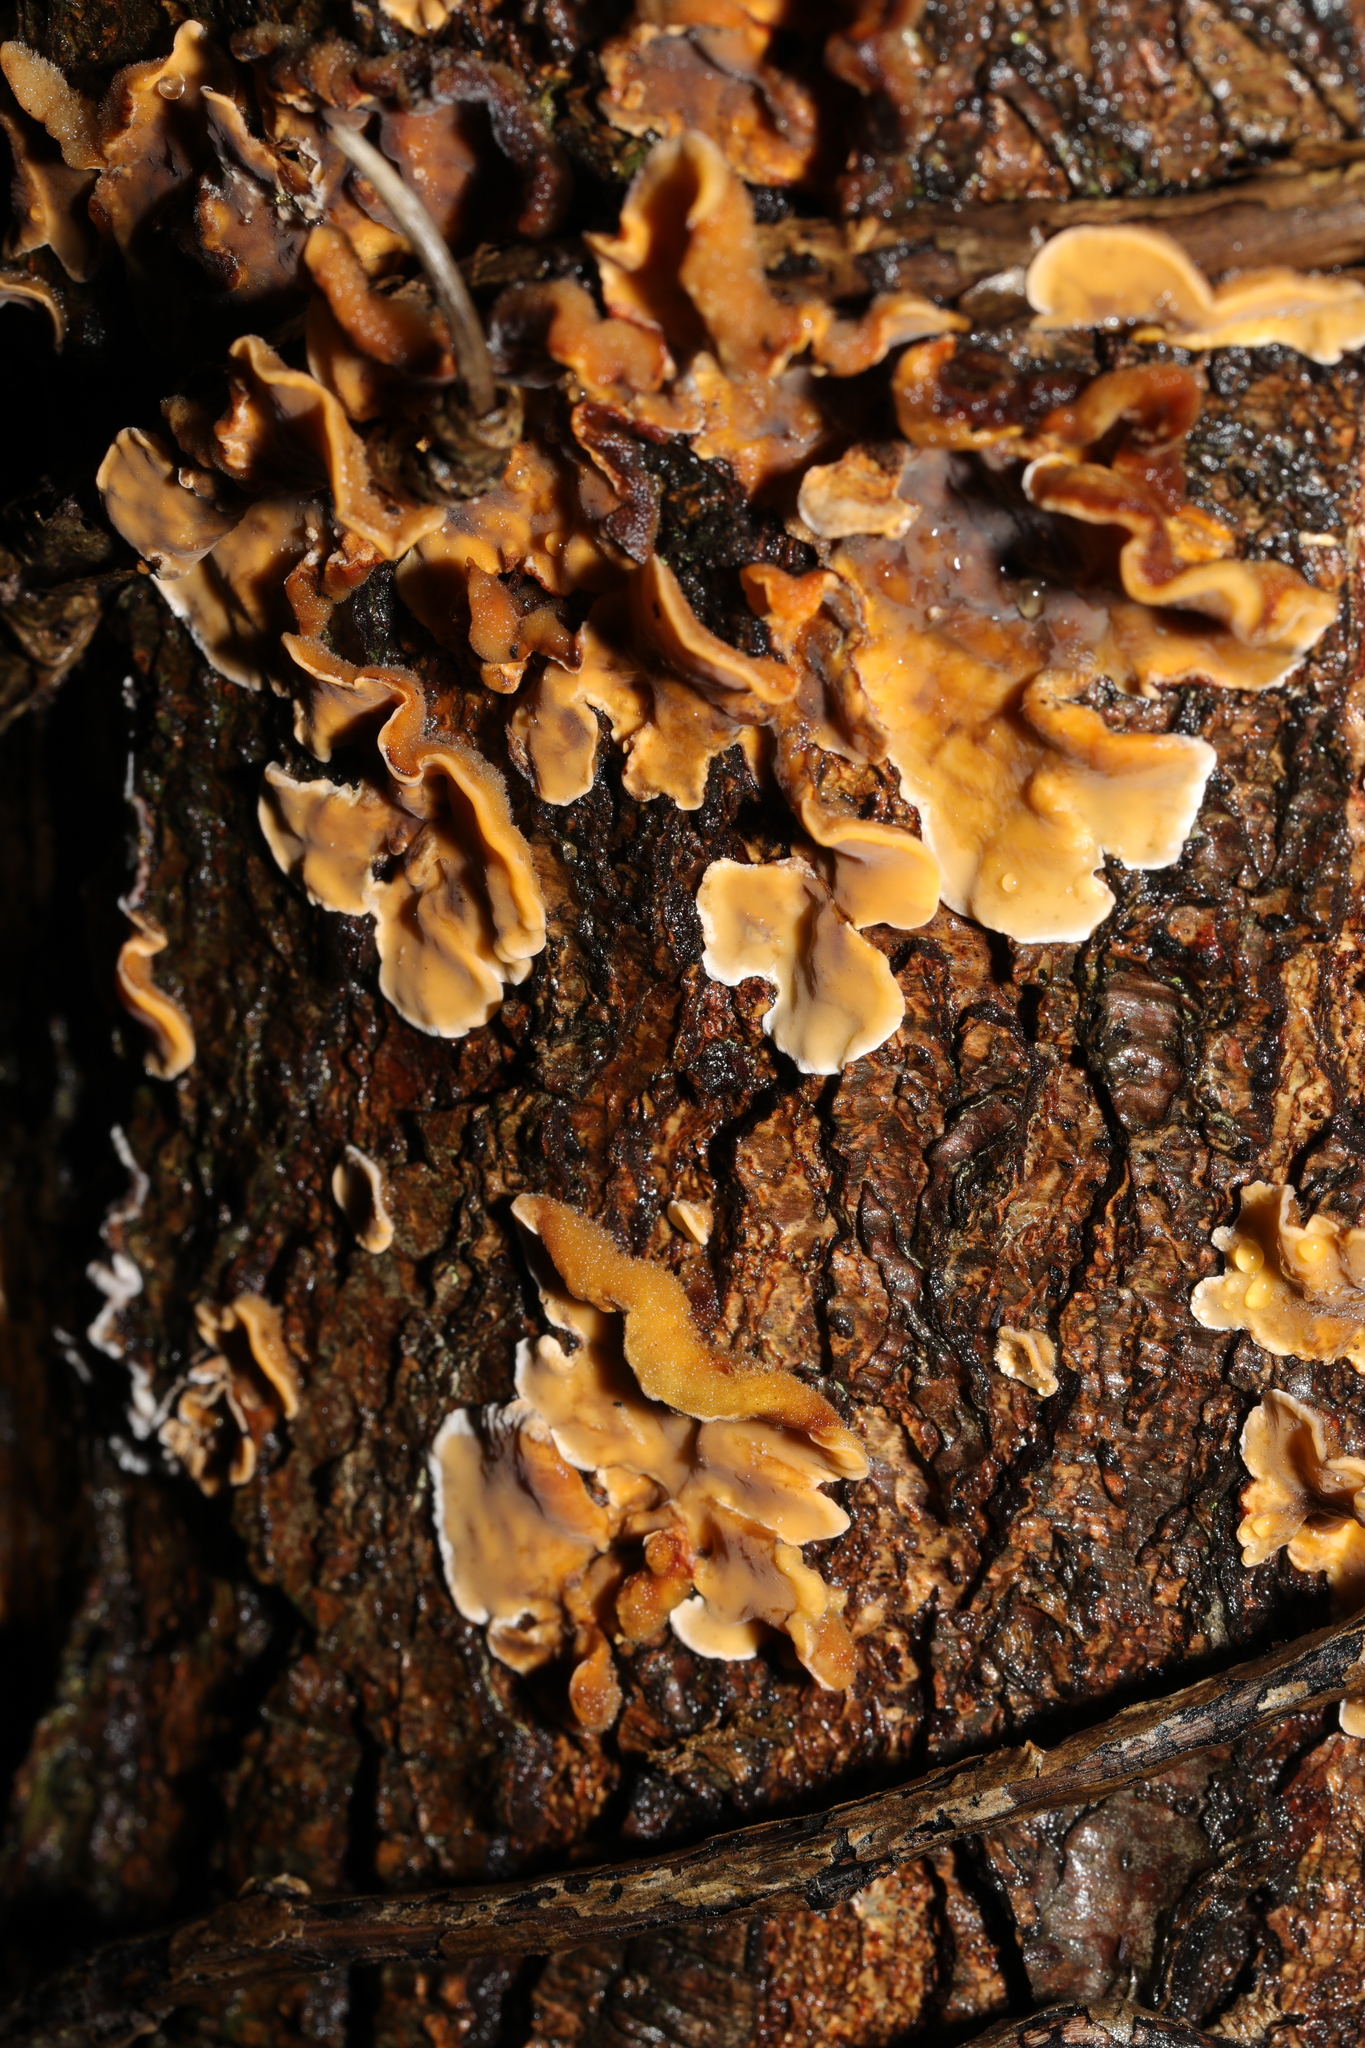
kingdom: Fungi
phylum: Basidiomycota
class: Agaricomycetes
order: Russulales
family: Stereaceae
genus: Stereum
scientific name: Stereum hirsutum
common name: Hairy curtain crust
